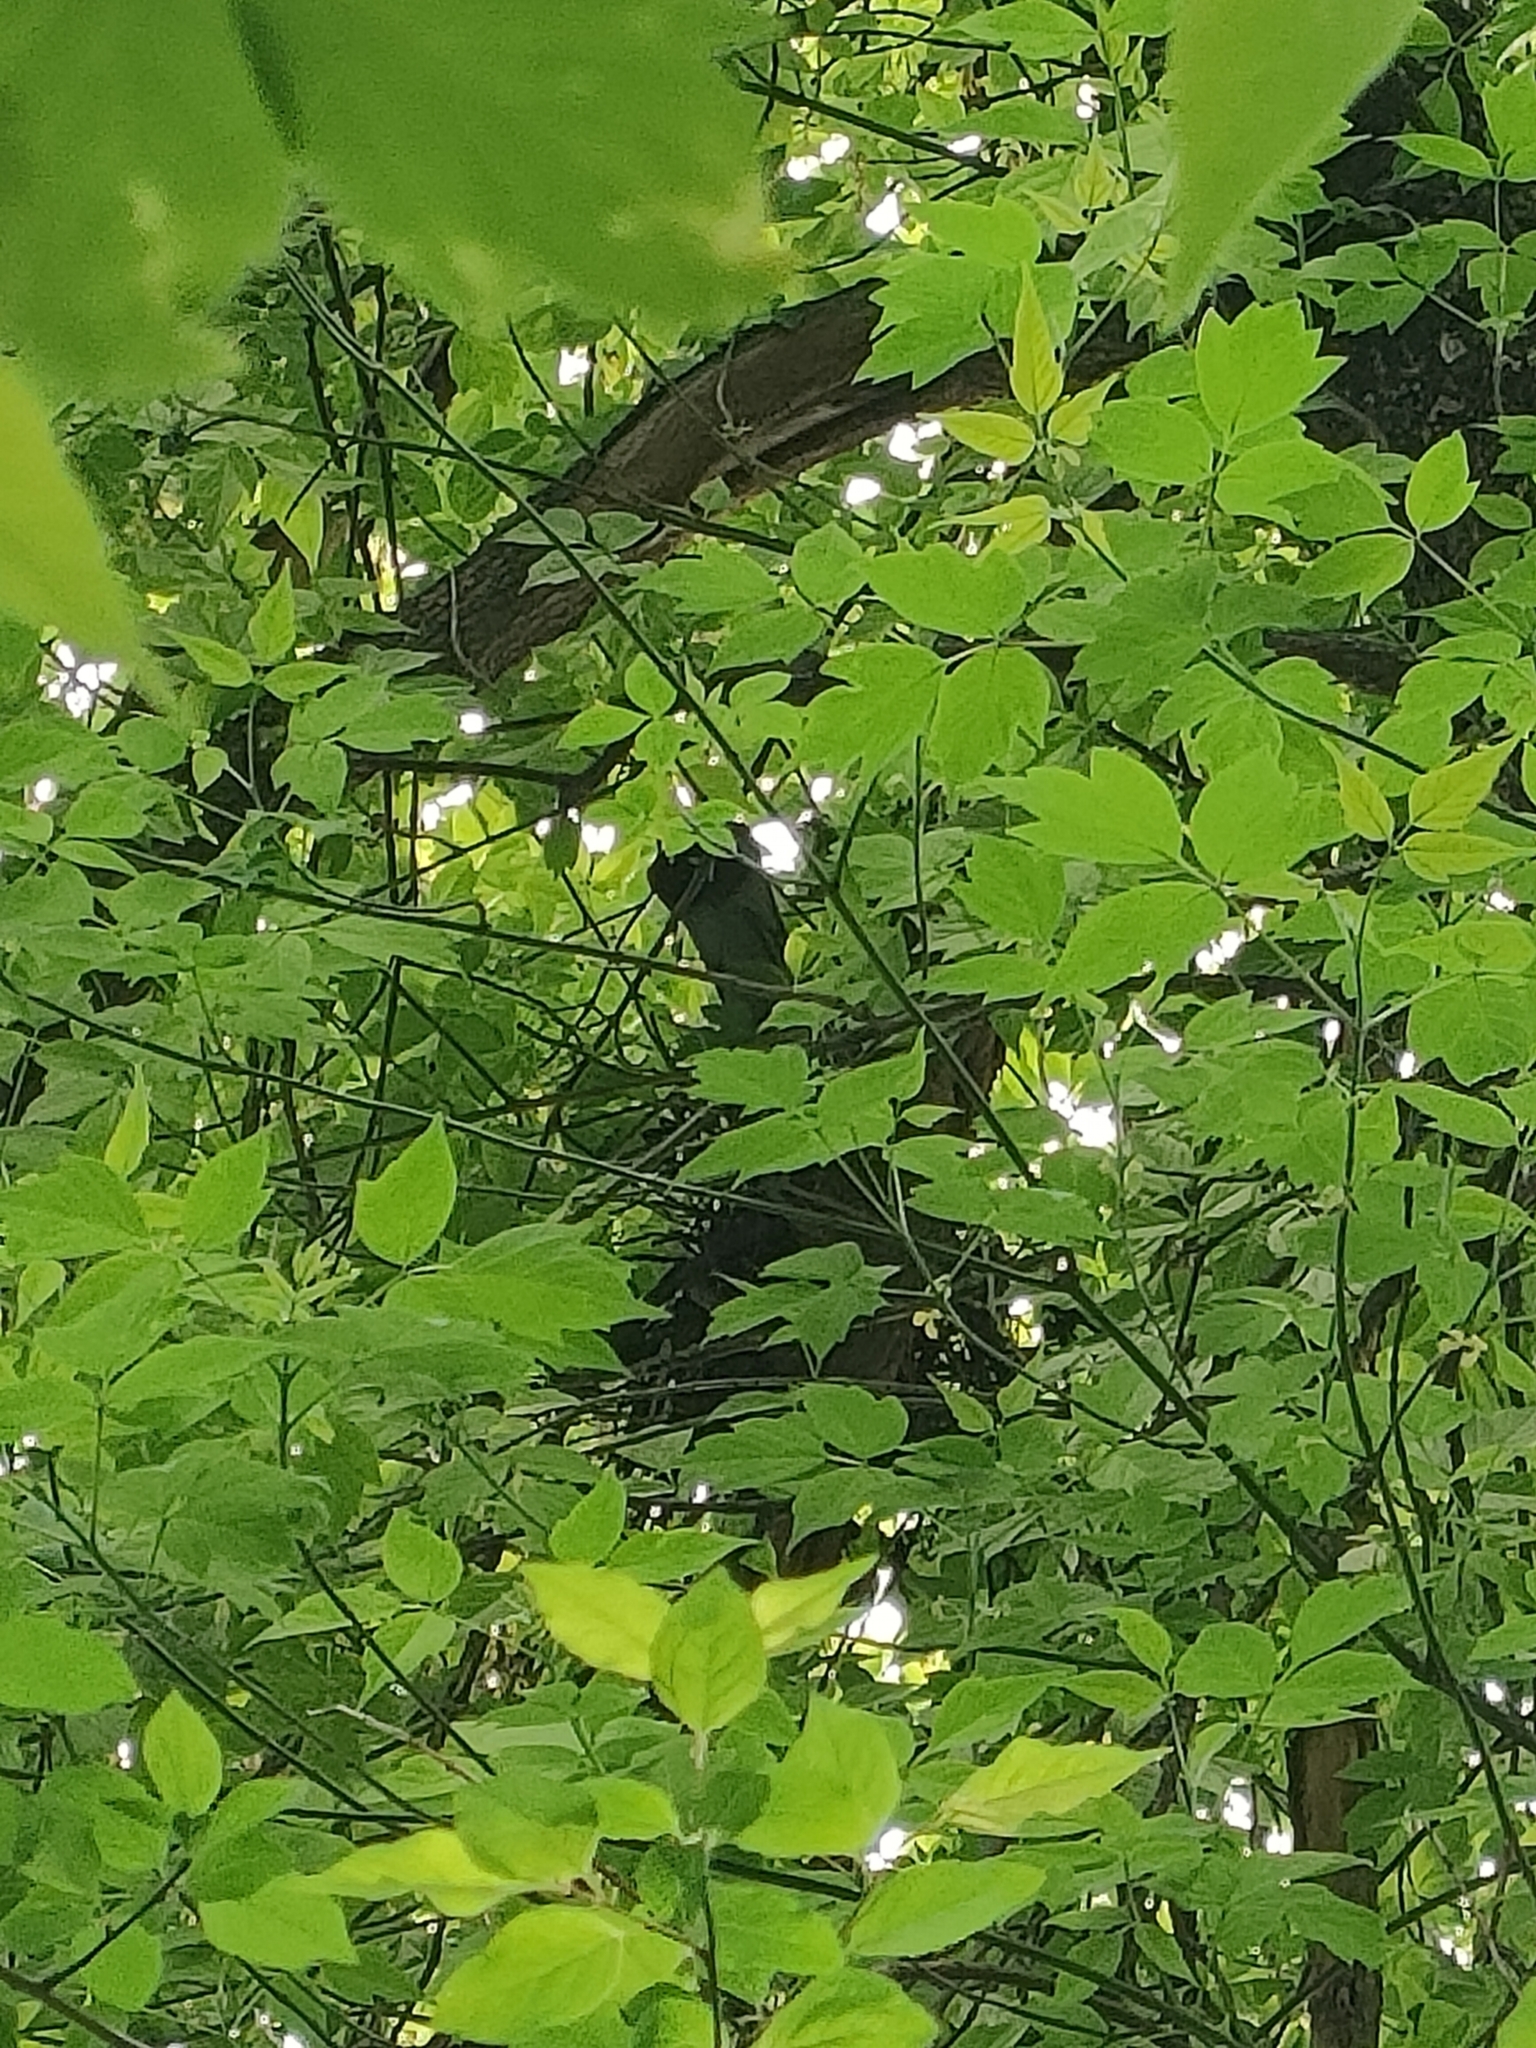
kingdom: Animalia
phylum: Chordata
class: Aves
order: Columbiformes
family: Columbidae
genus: Columba
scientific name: Columba palumbus
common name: Common wood pigeon
